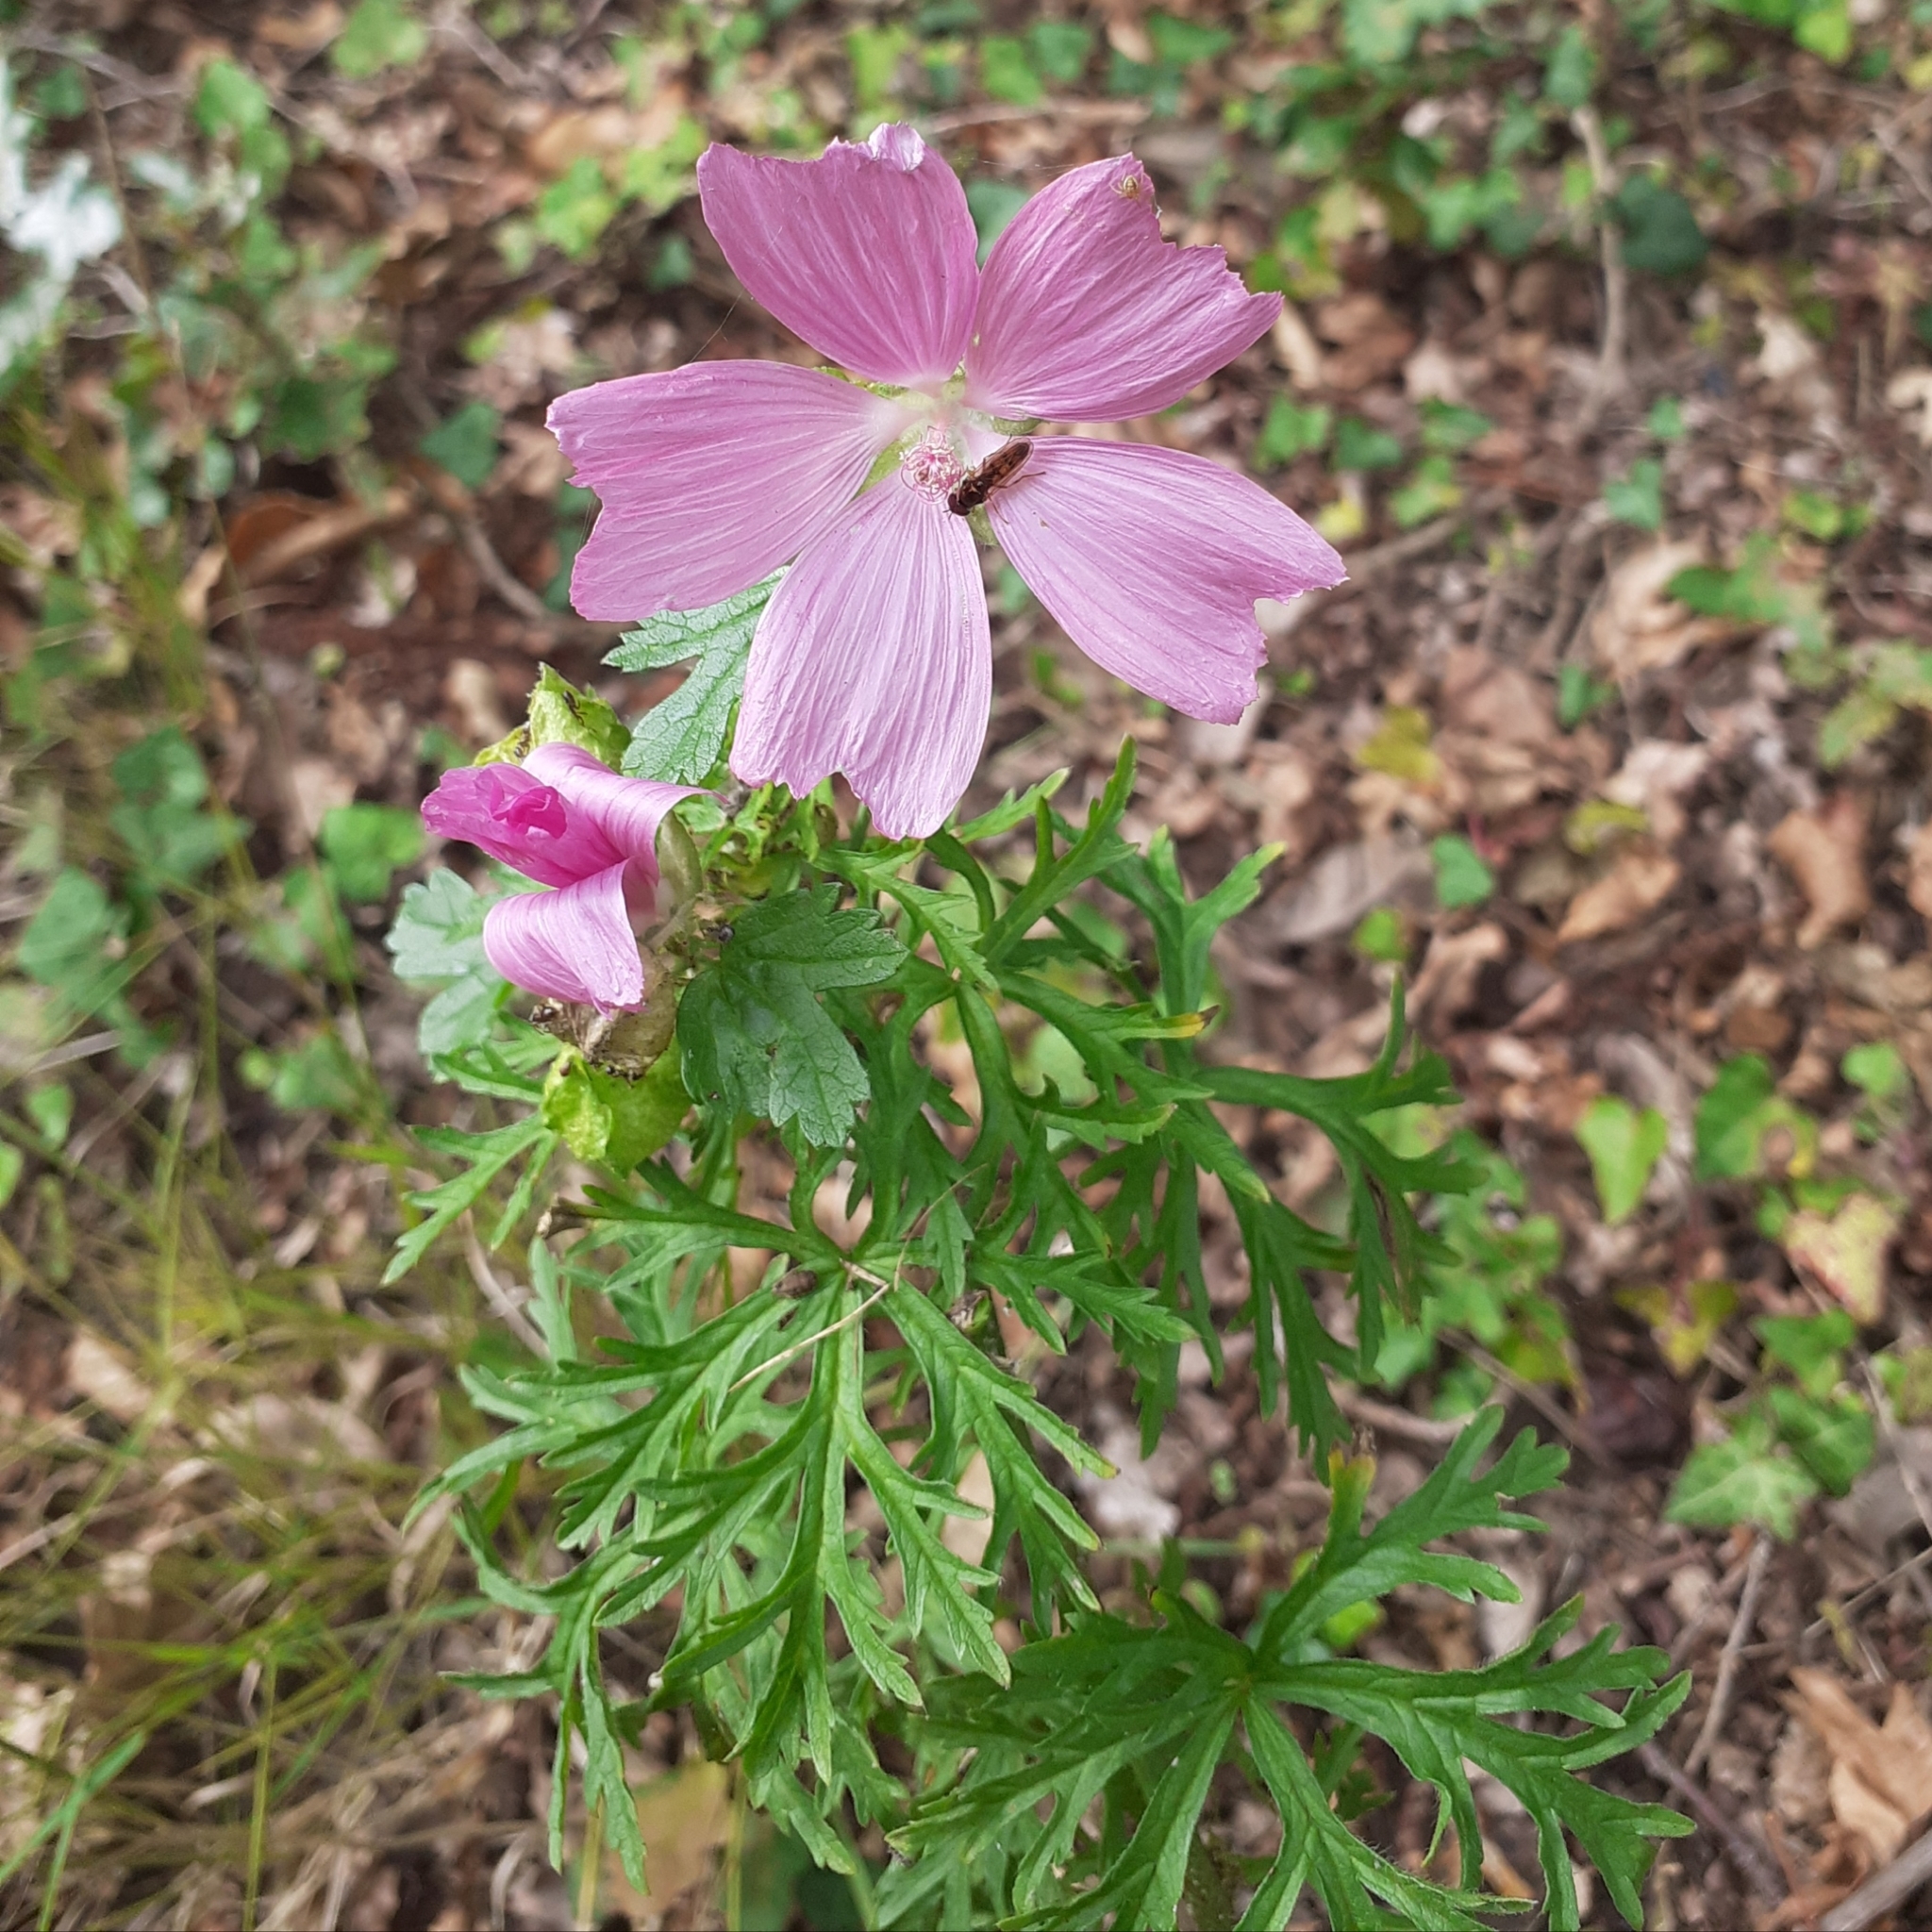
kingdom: Plantae
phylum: Tracheophyta
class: Magnoliopsida
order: Malvales
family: Malvaceae
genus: Malva
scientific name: Malva moschata
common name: Musk mallow
